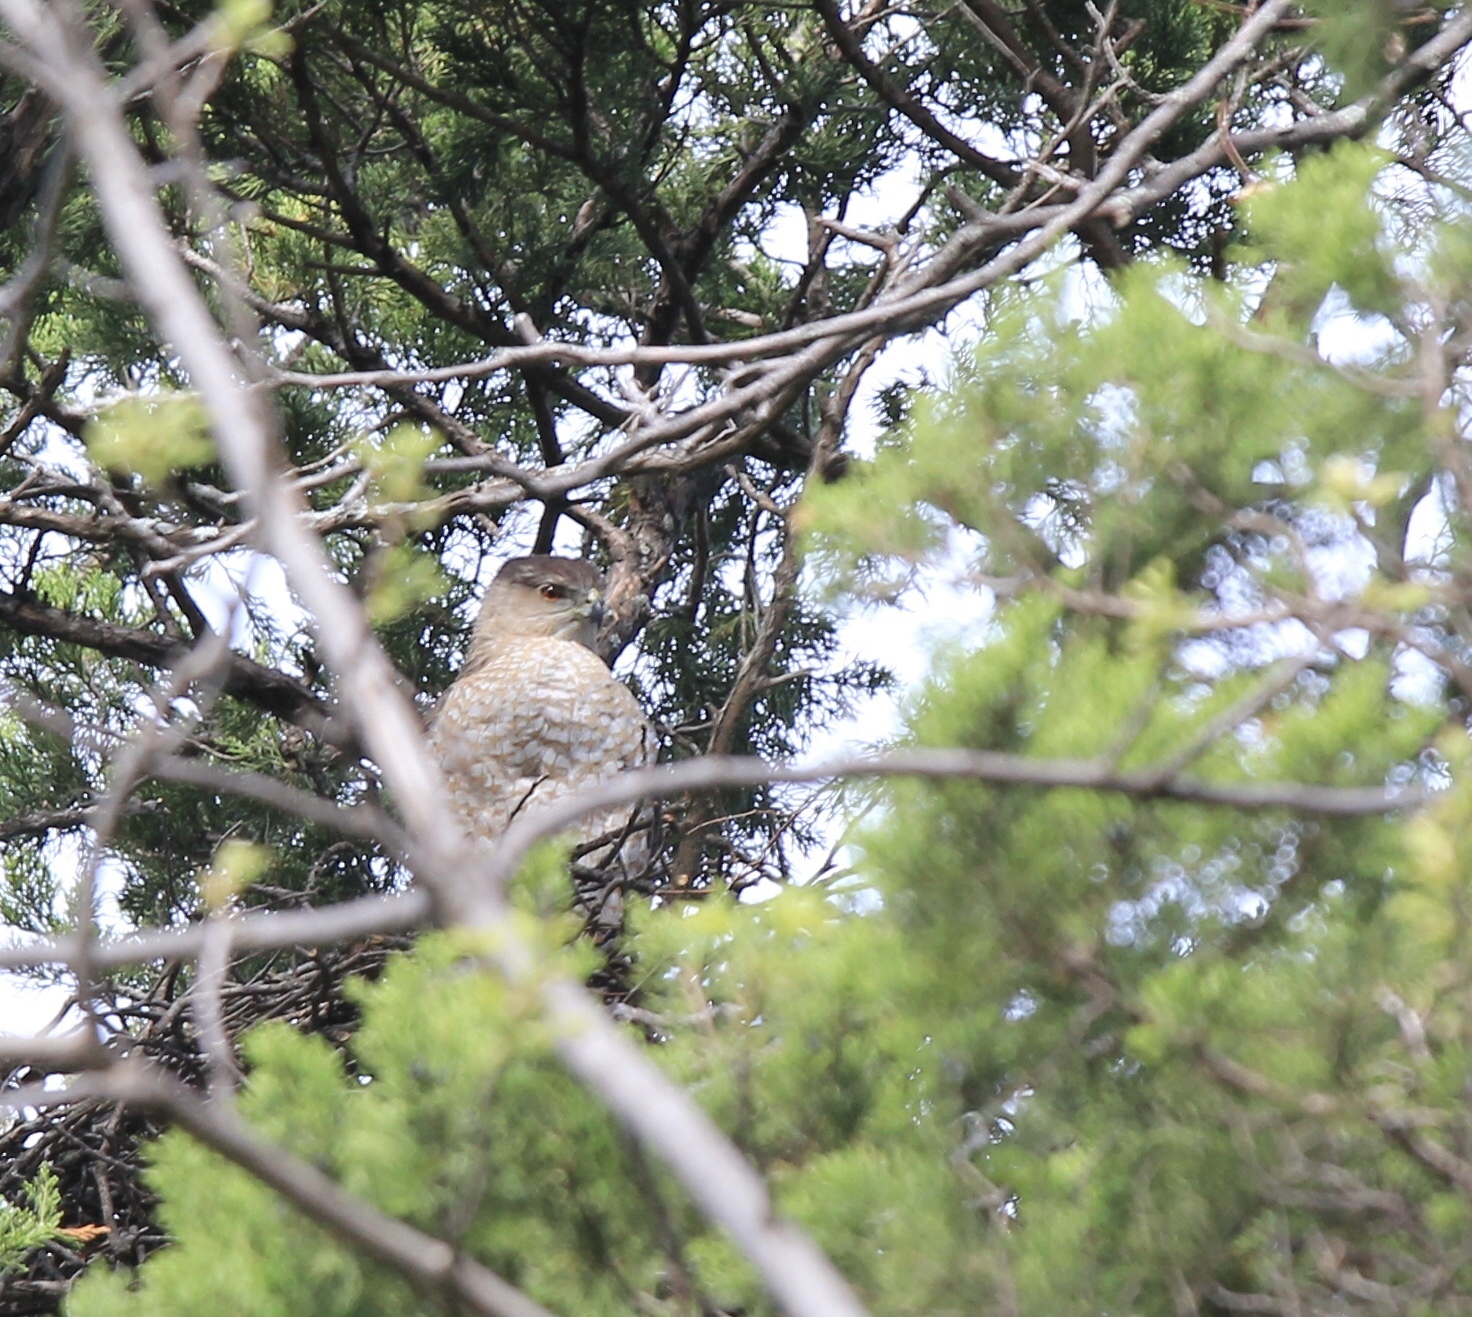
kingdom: Animalia
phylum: Chordata
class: Aves
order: Accipitriformes
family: Accipitridae
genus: Accipiter
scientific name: Accipiter cooperii
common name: Cooper's hawk
